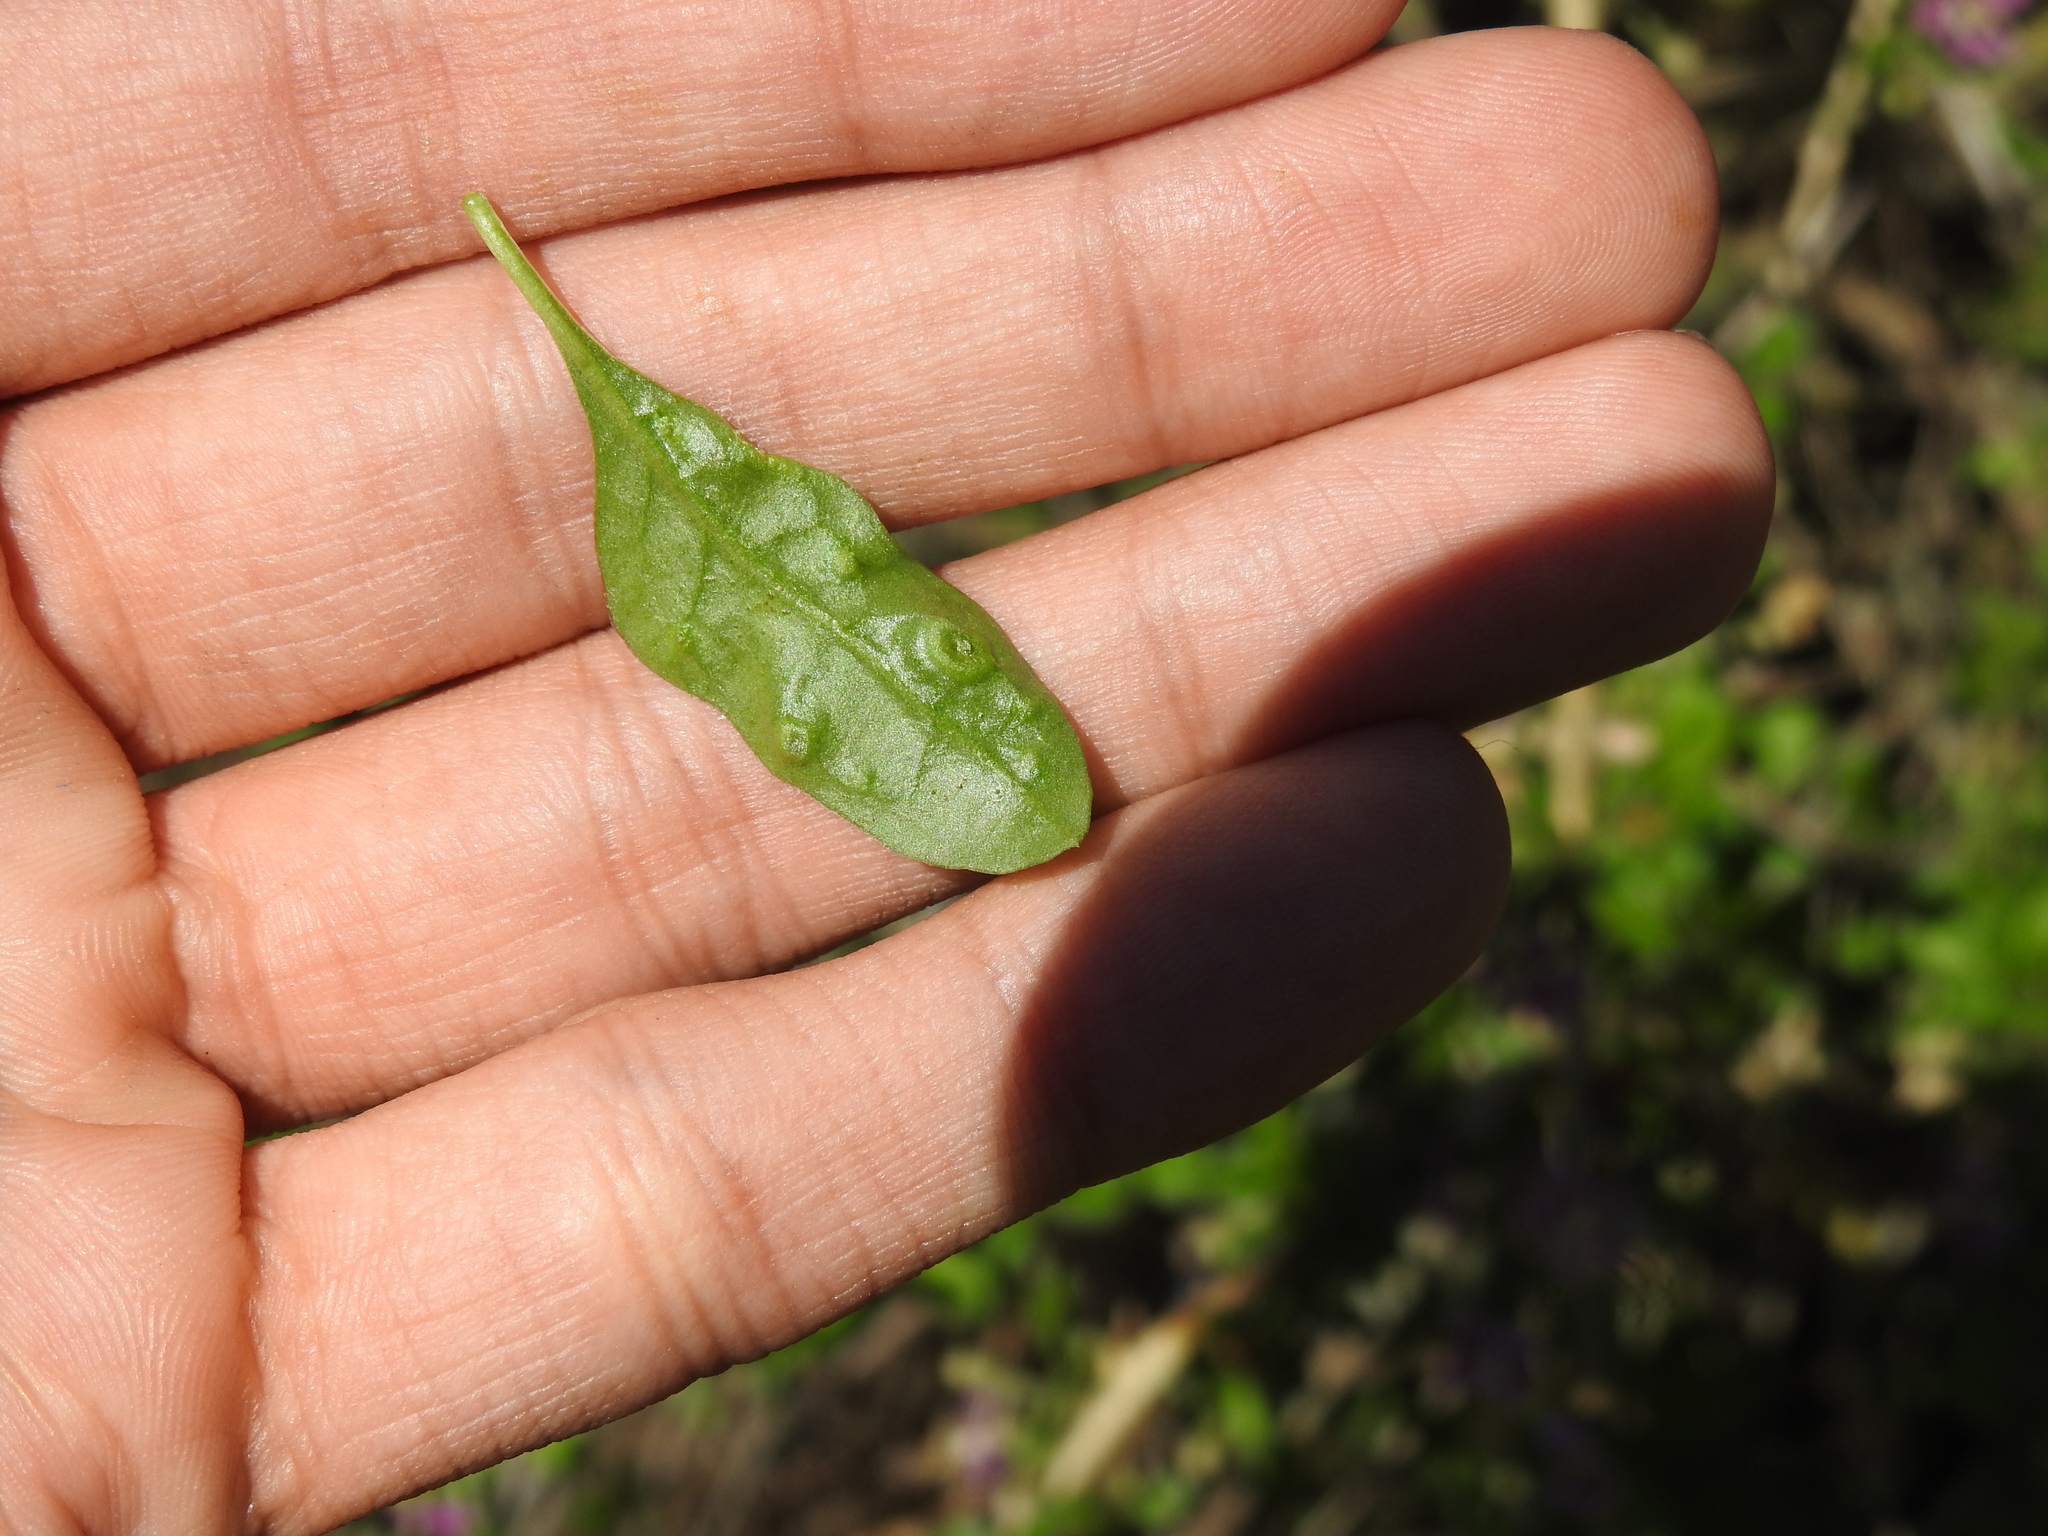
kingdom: Animalia
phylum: Arthropoda
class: Arachnida
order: Trombidiformes
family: Eriophyidae
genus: Aceria
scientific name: Aceria kuko
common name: Goji gall mite
